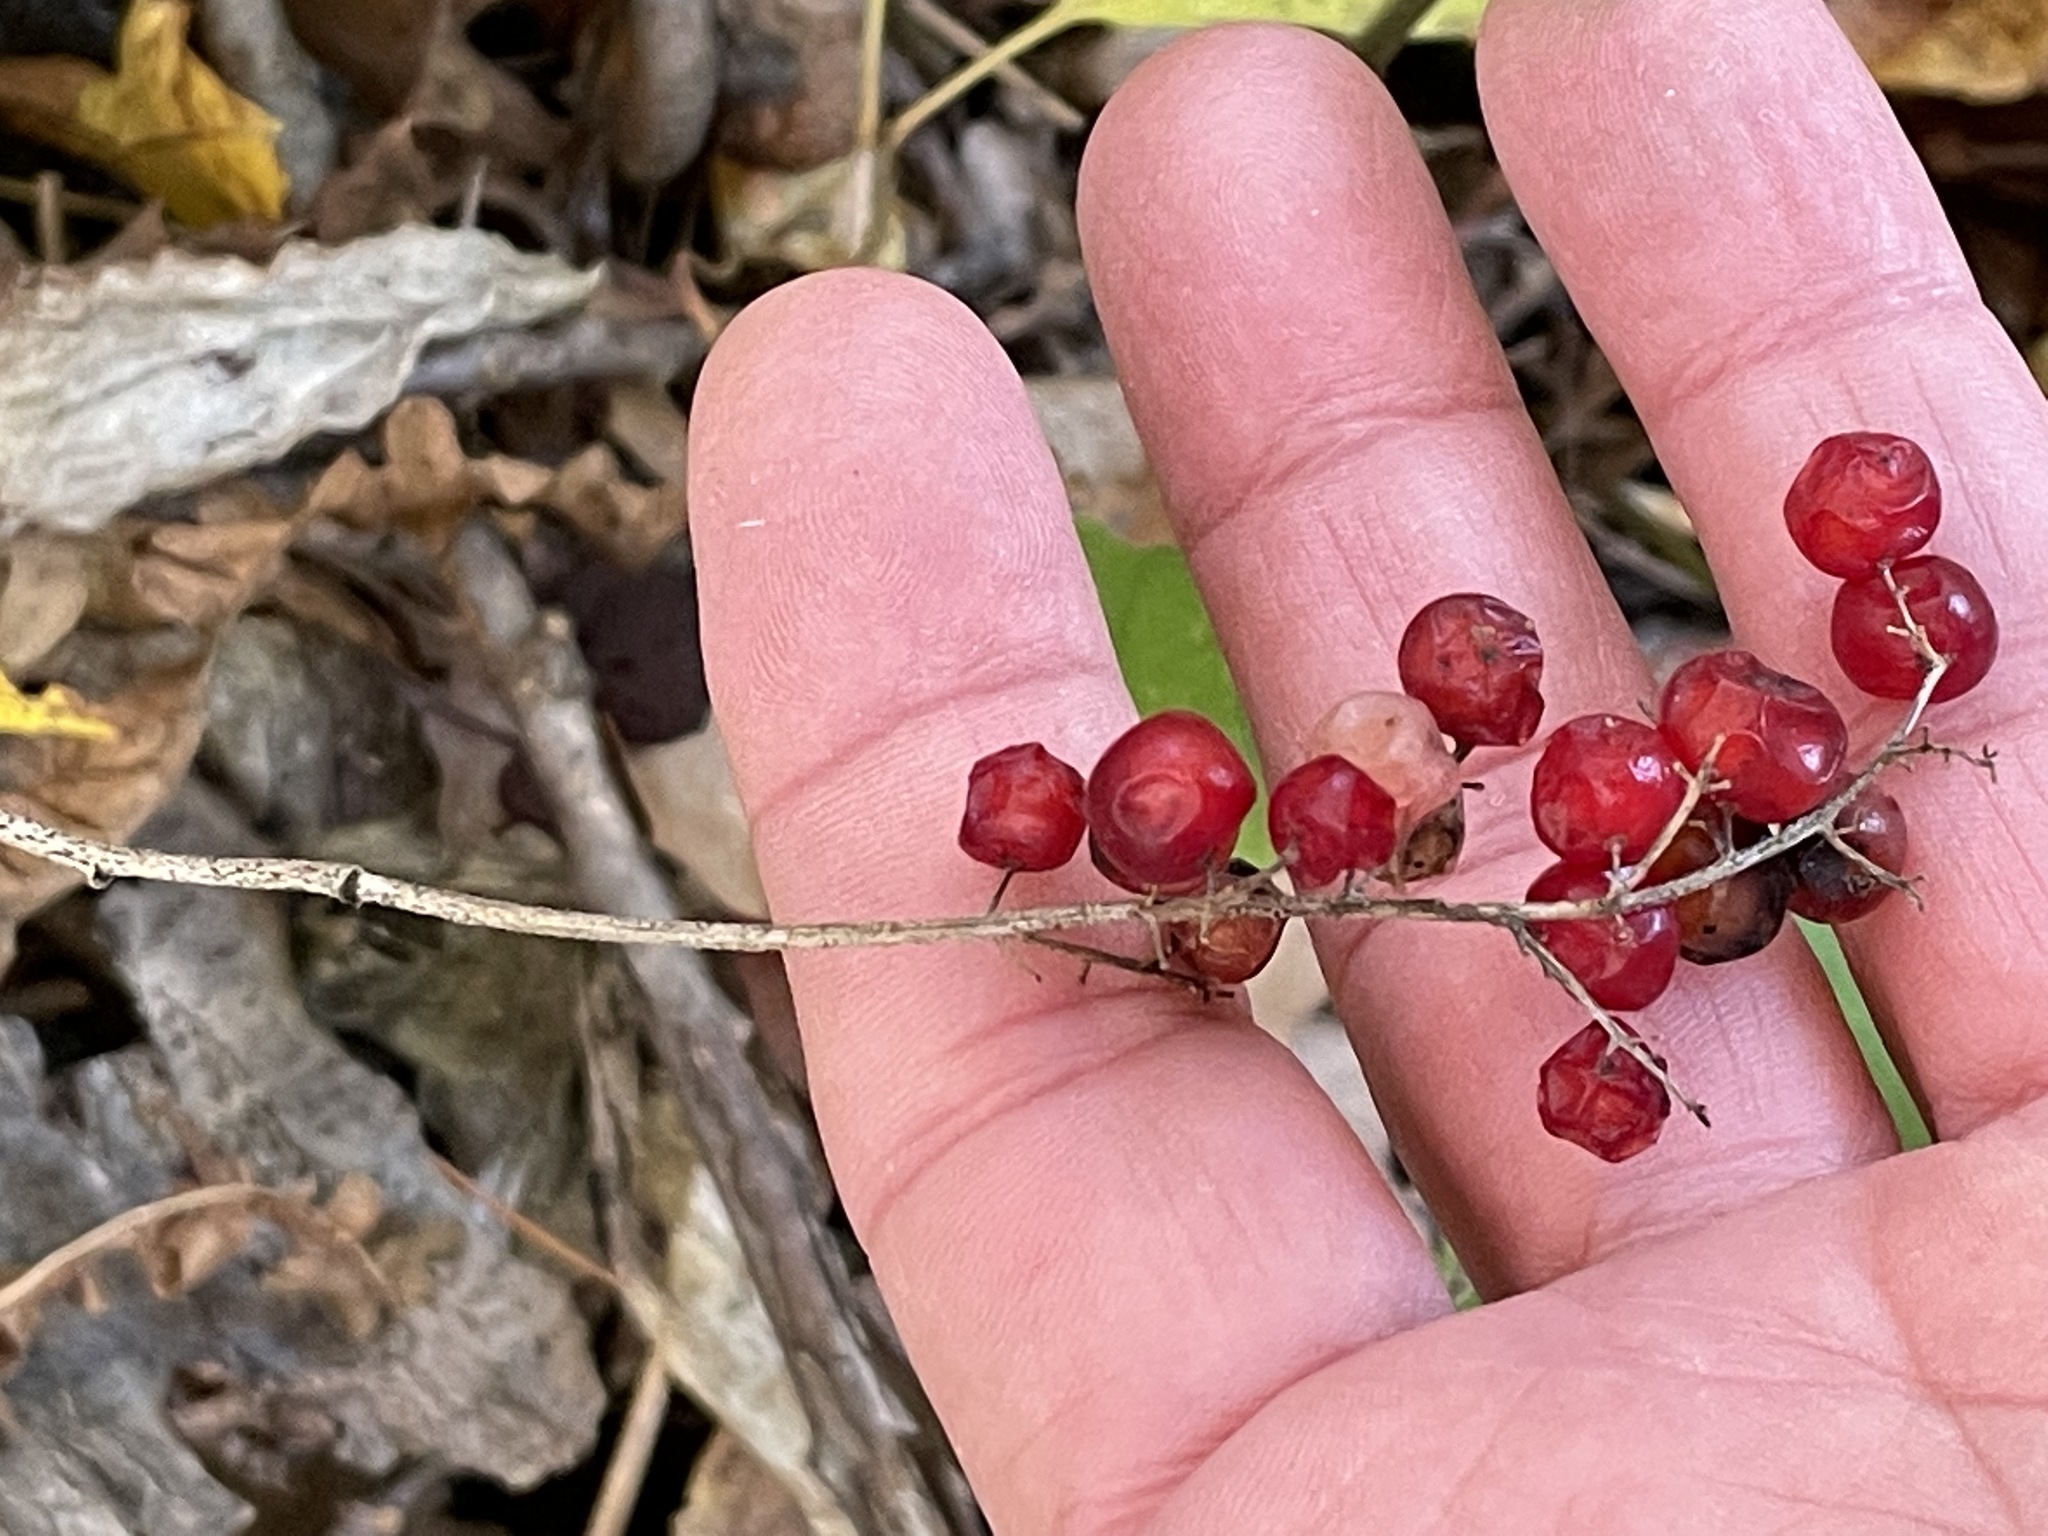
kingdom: Plantae
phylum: Tracheophyta
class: Liliopsida
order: Asparagales
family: Asparagaceae
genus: Maianthemum
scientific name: Maianthemum racemosum
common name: False spikenard
